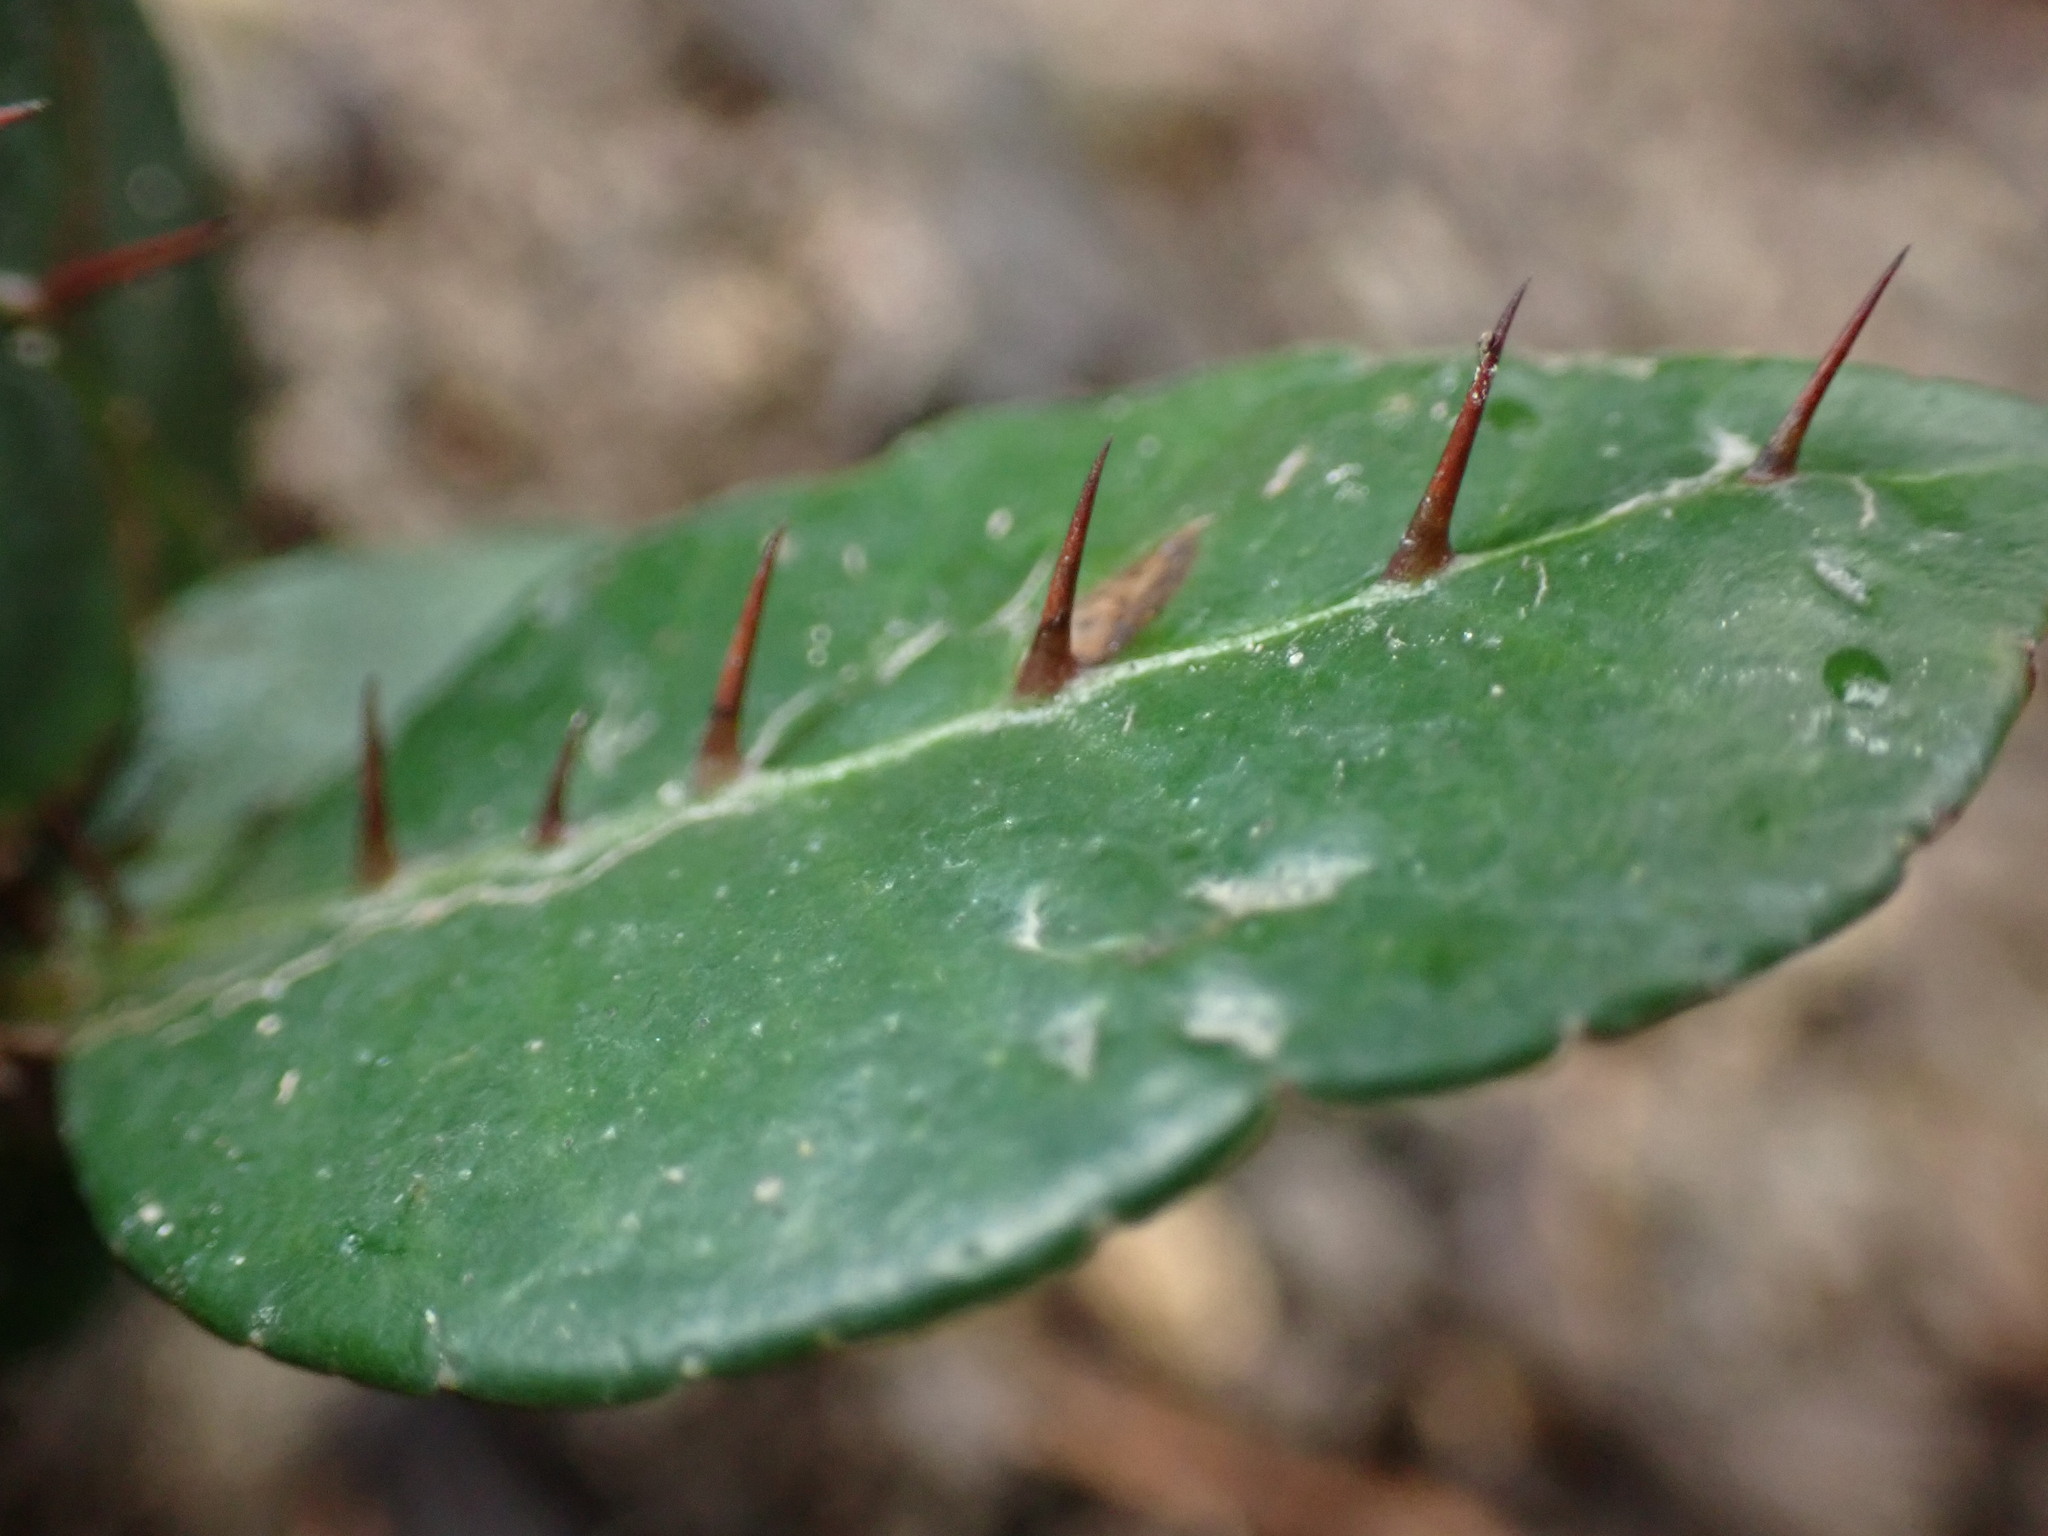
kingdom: Plantae
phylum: Tracheophyta
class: Magnoliopsida
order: Sapindales
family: Rutaceae
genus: Zanthoxylum
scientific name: Zanthoxylum nitidum
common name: Shiny-leaf prickly-ash
